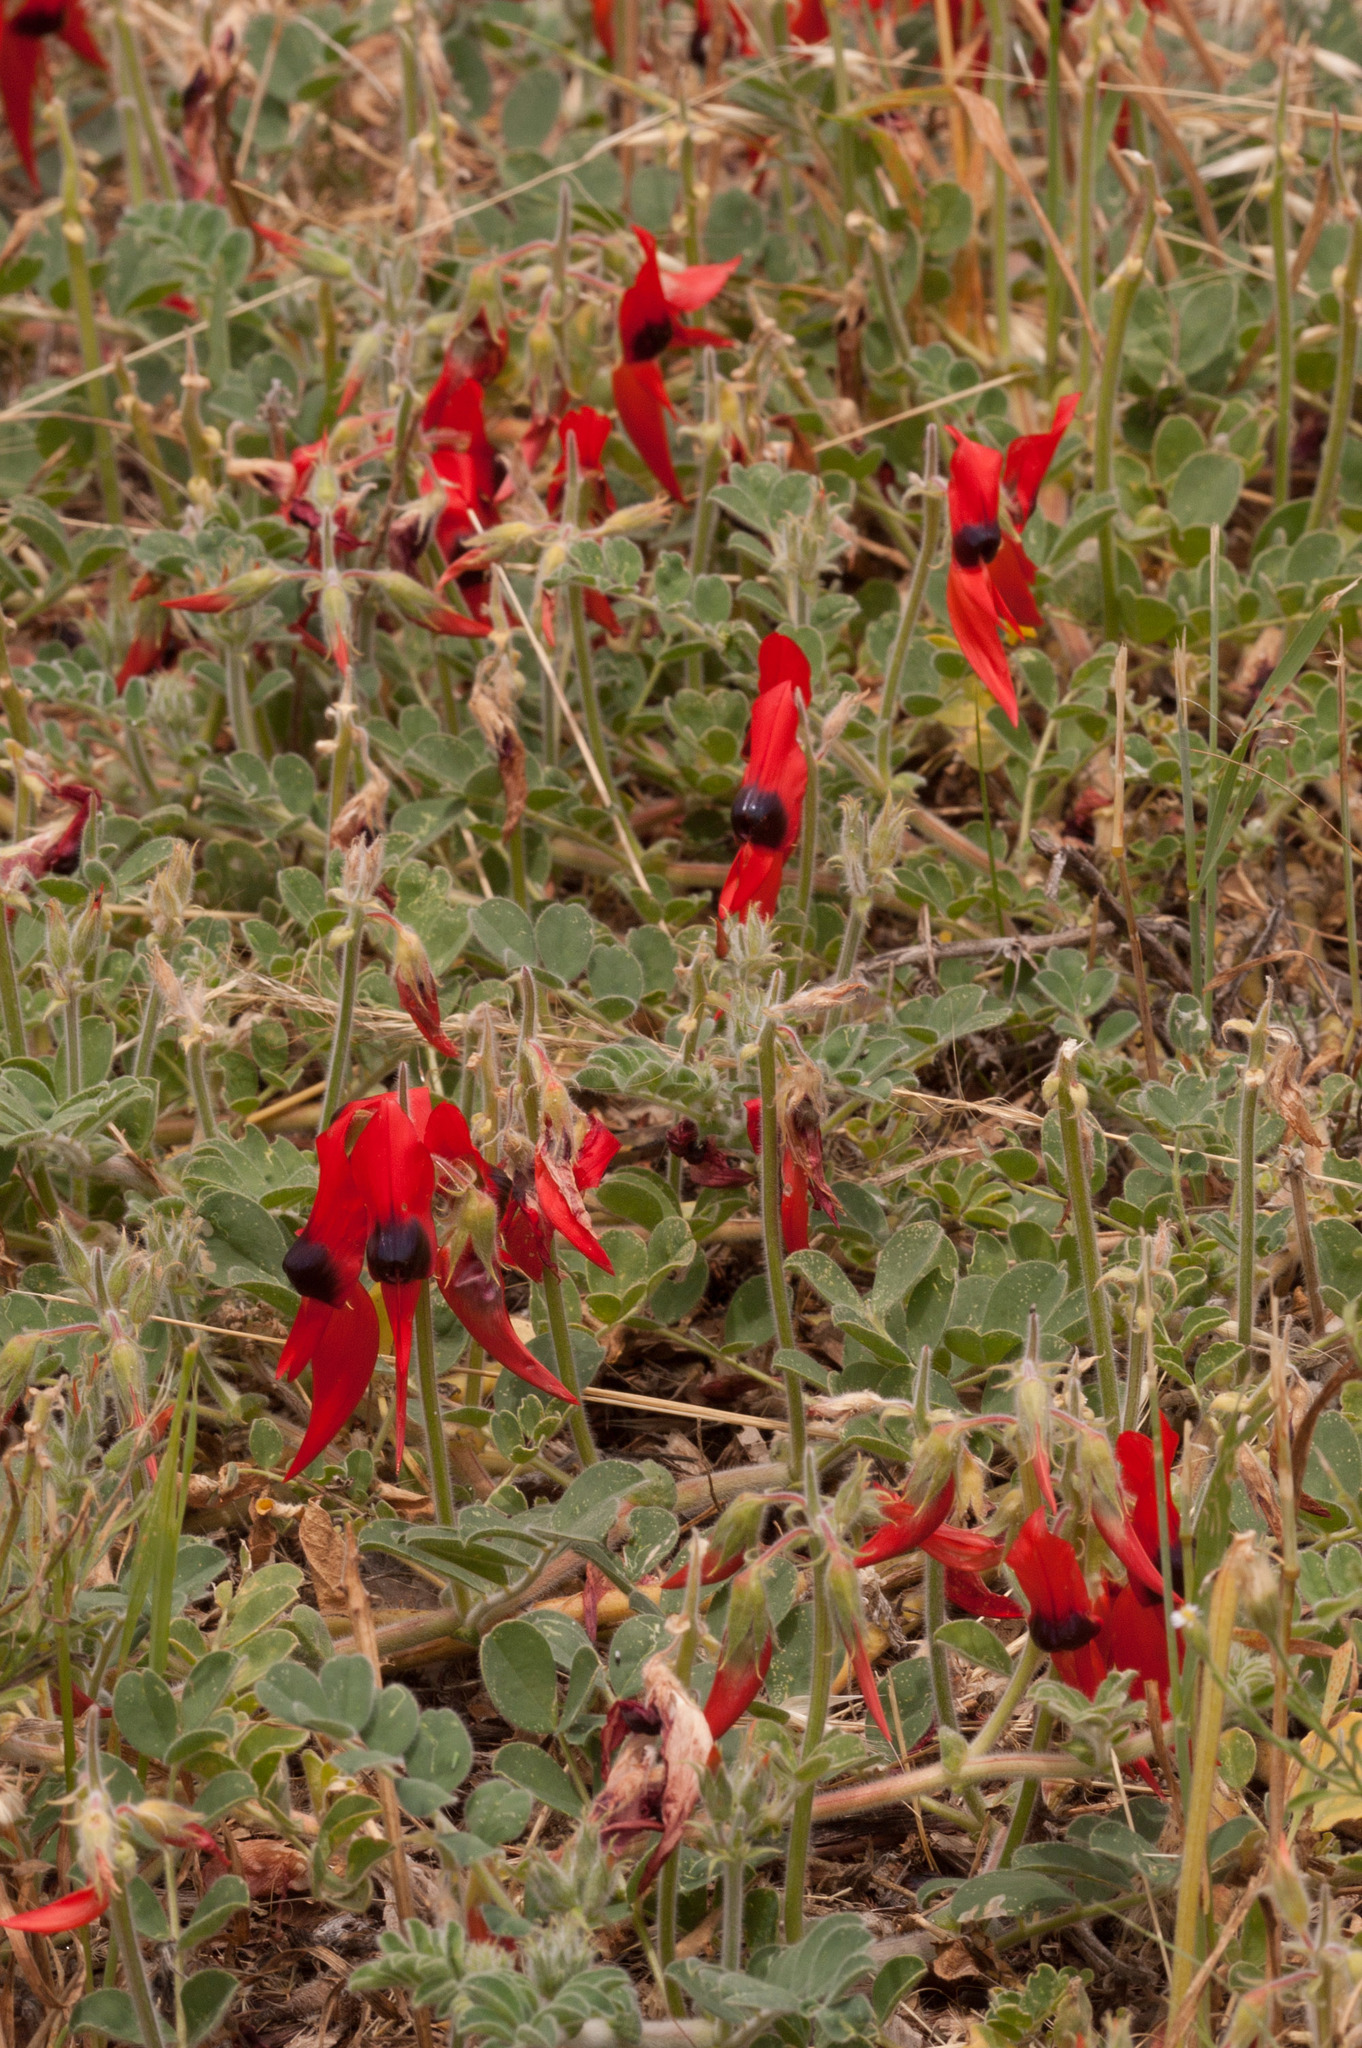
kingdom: Plantae
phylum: Tracheophyta
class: Magnoliopsida
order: Fabales
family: Fabaceae
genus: Swainsona
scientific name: Swainsona formosa
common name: Sturt's desert-pea
